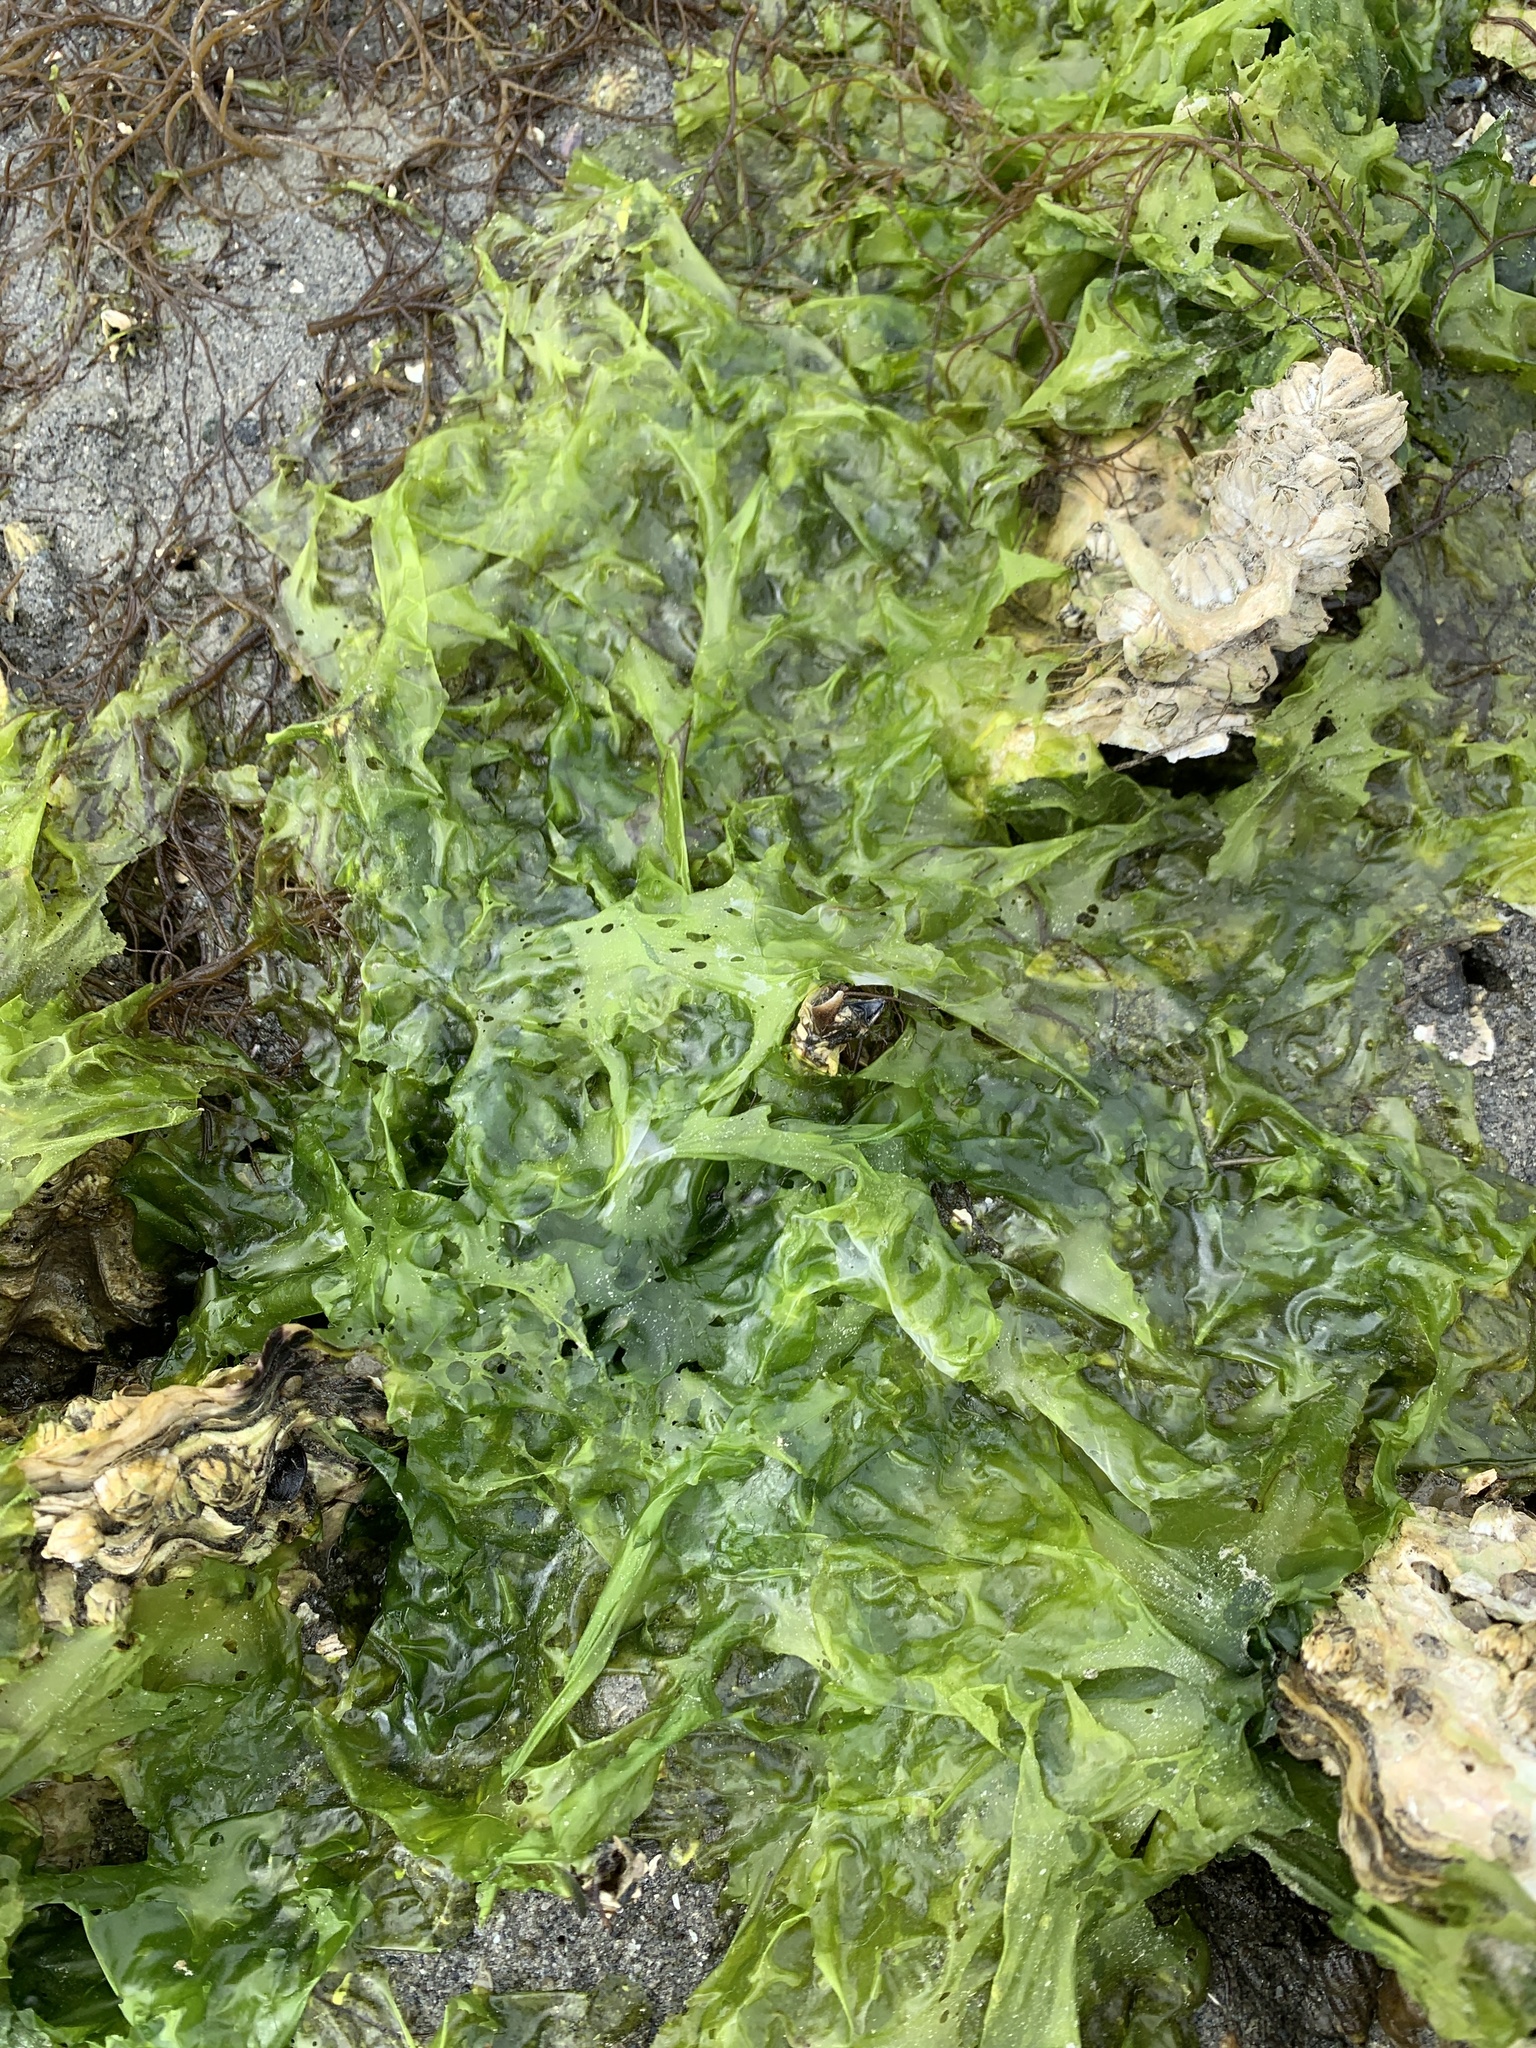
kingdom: Plantae
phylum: Chlorophyta
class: Ulvophyceae
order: Ulvales
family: Ulvaceae
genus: Ulva
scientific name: Ulva lactuca
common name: Sea lettuce
